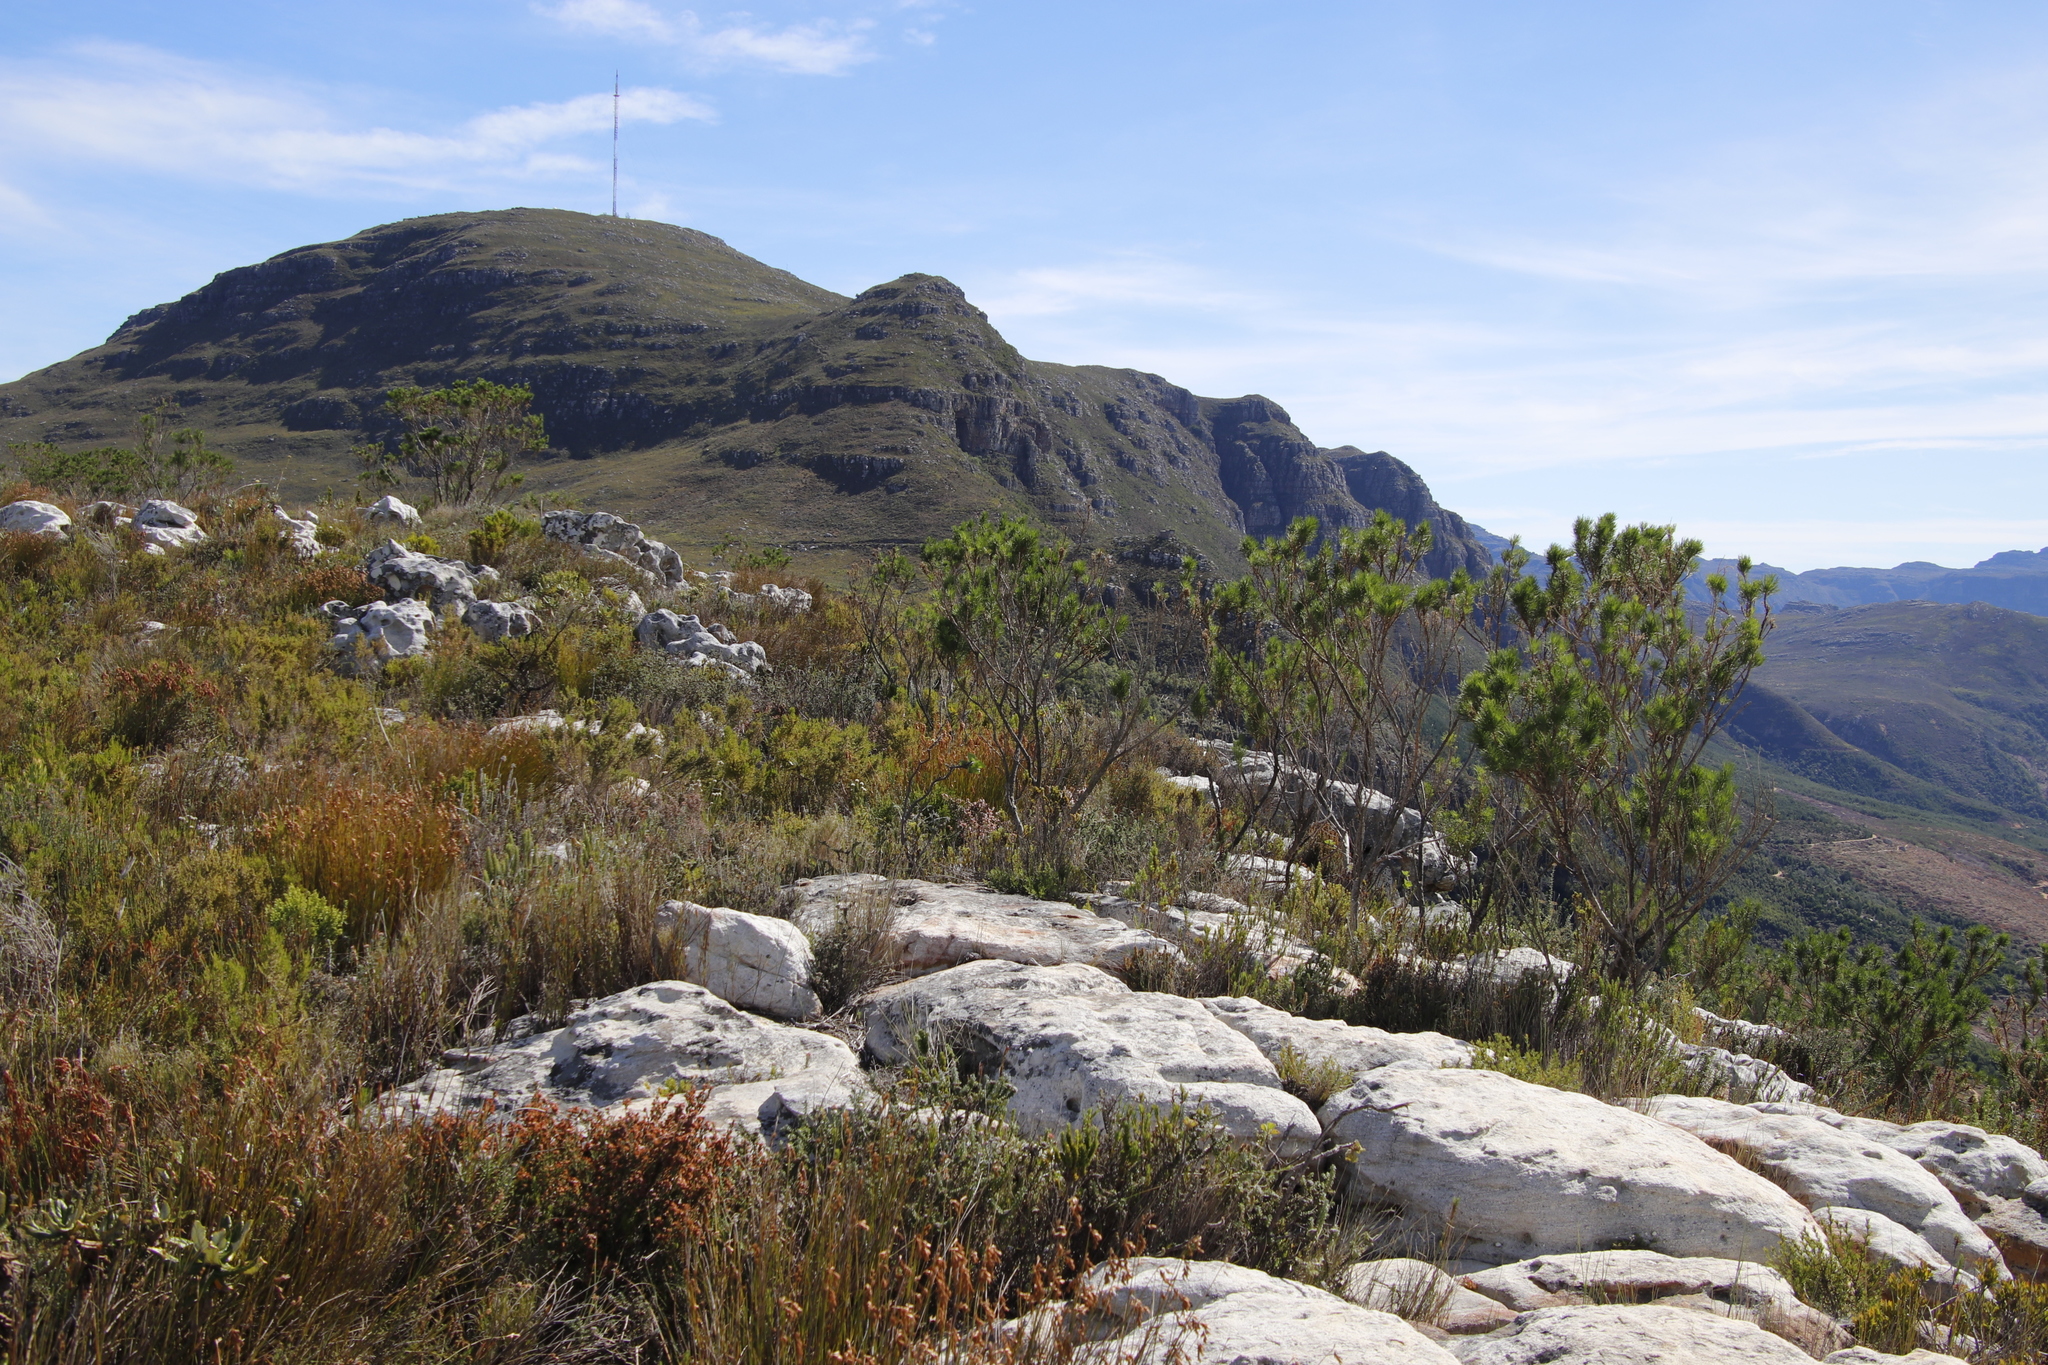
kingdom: Plantae
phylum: Tracheophyta
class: Magnoliopsida
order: Fabales
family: Fabaceae
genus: Psoralea
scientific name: Psoralea pinnata
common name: African scurfpea
